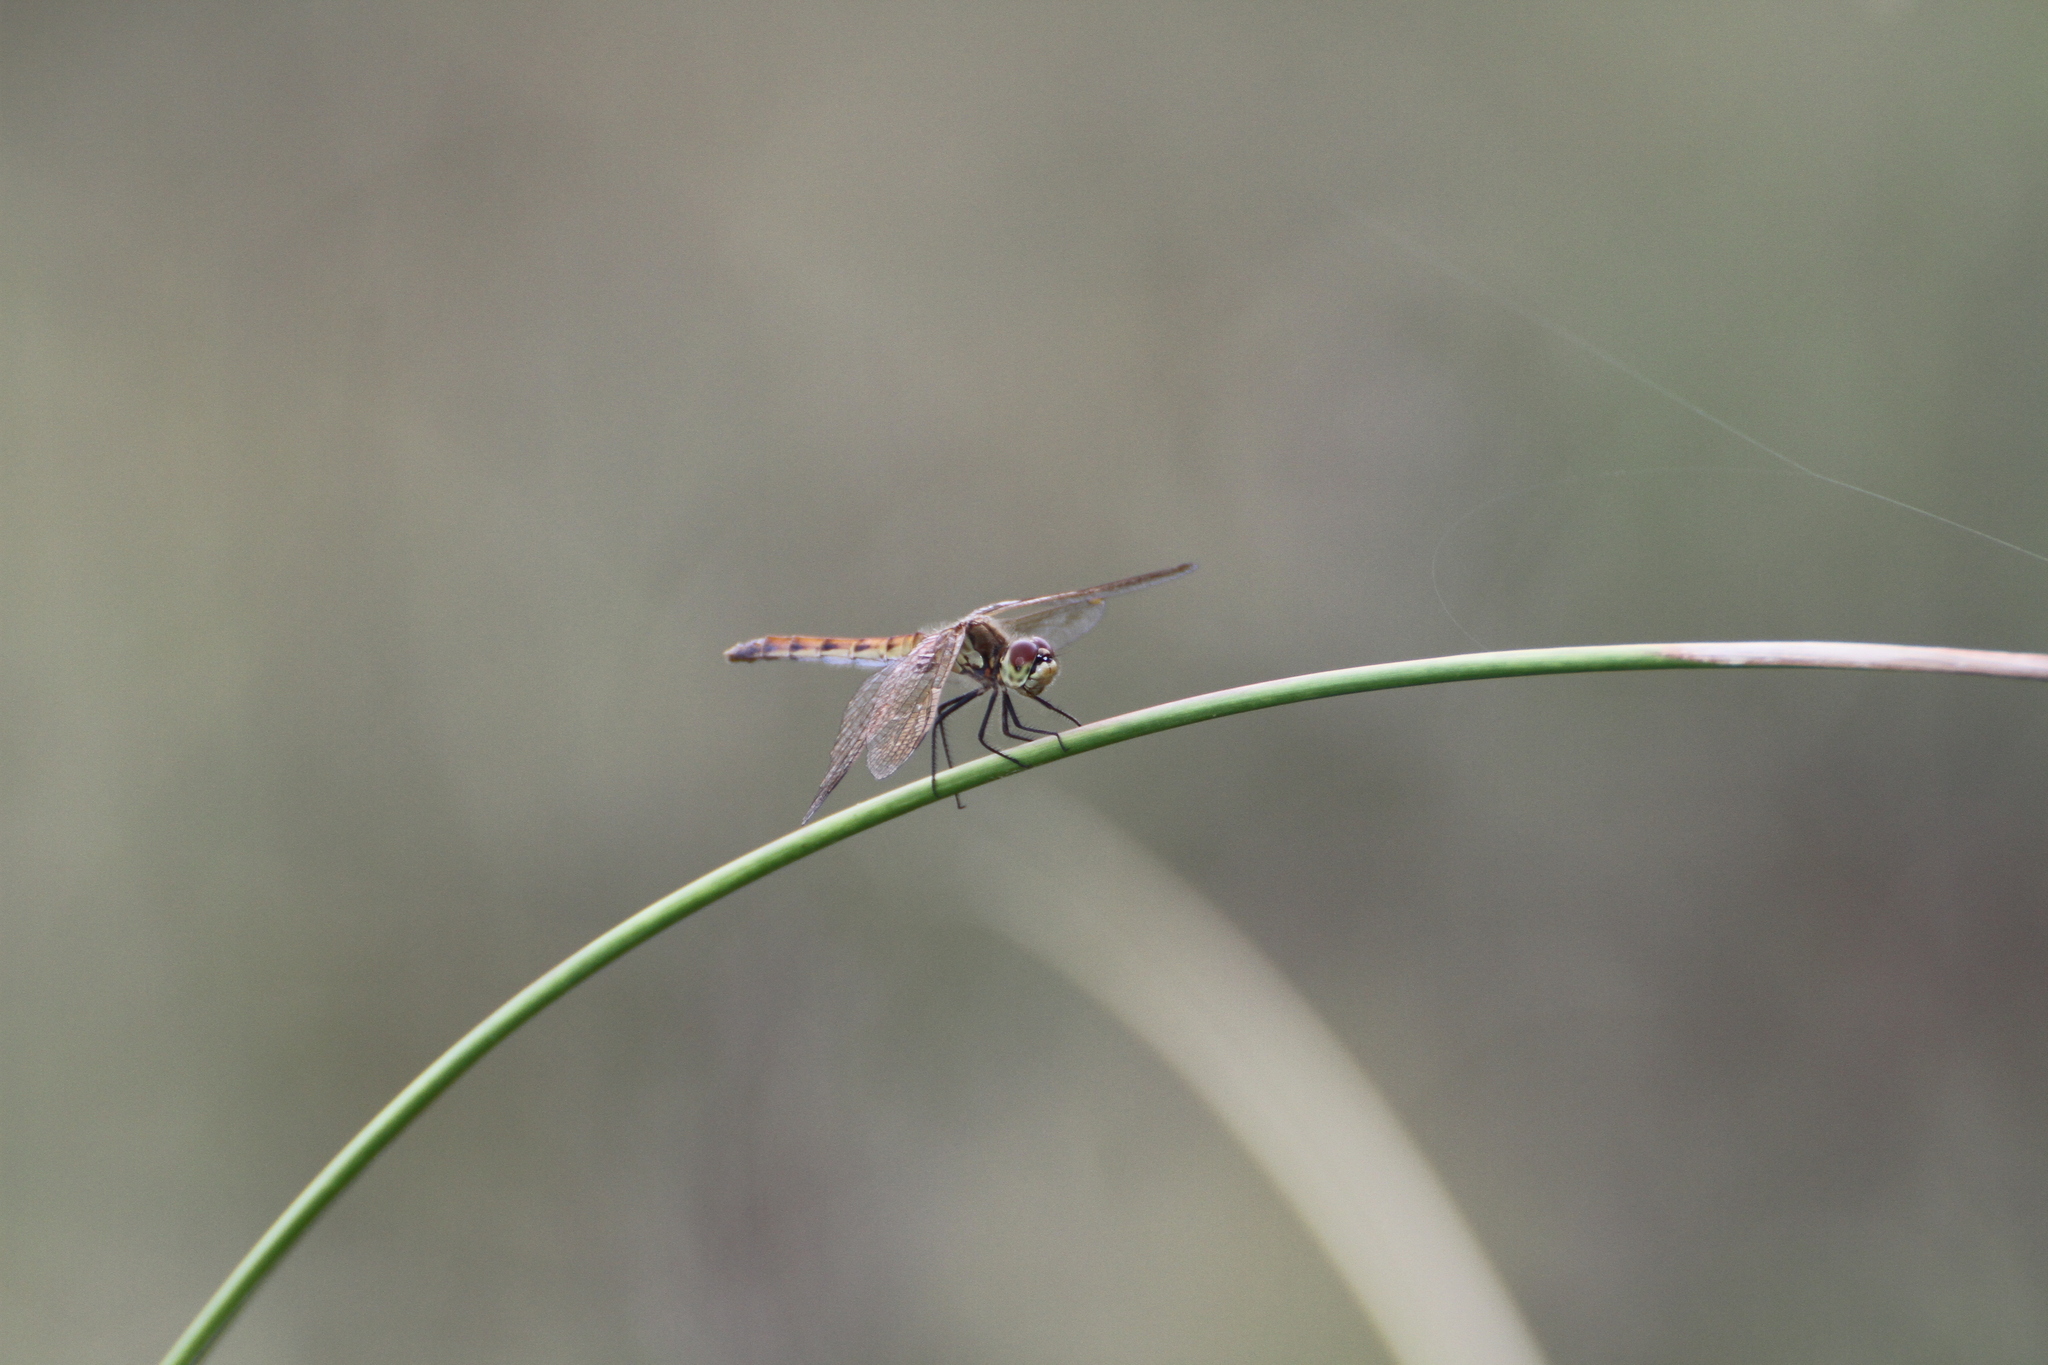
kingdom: Animalia
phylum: Arthropoda
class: Insecta
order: Odonata
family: Libellulidae
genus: Sympetrum
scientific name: Sympetrum depressiusculum
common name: Spotted darter
